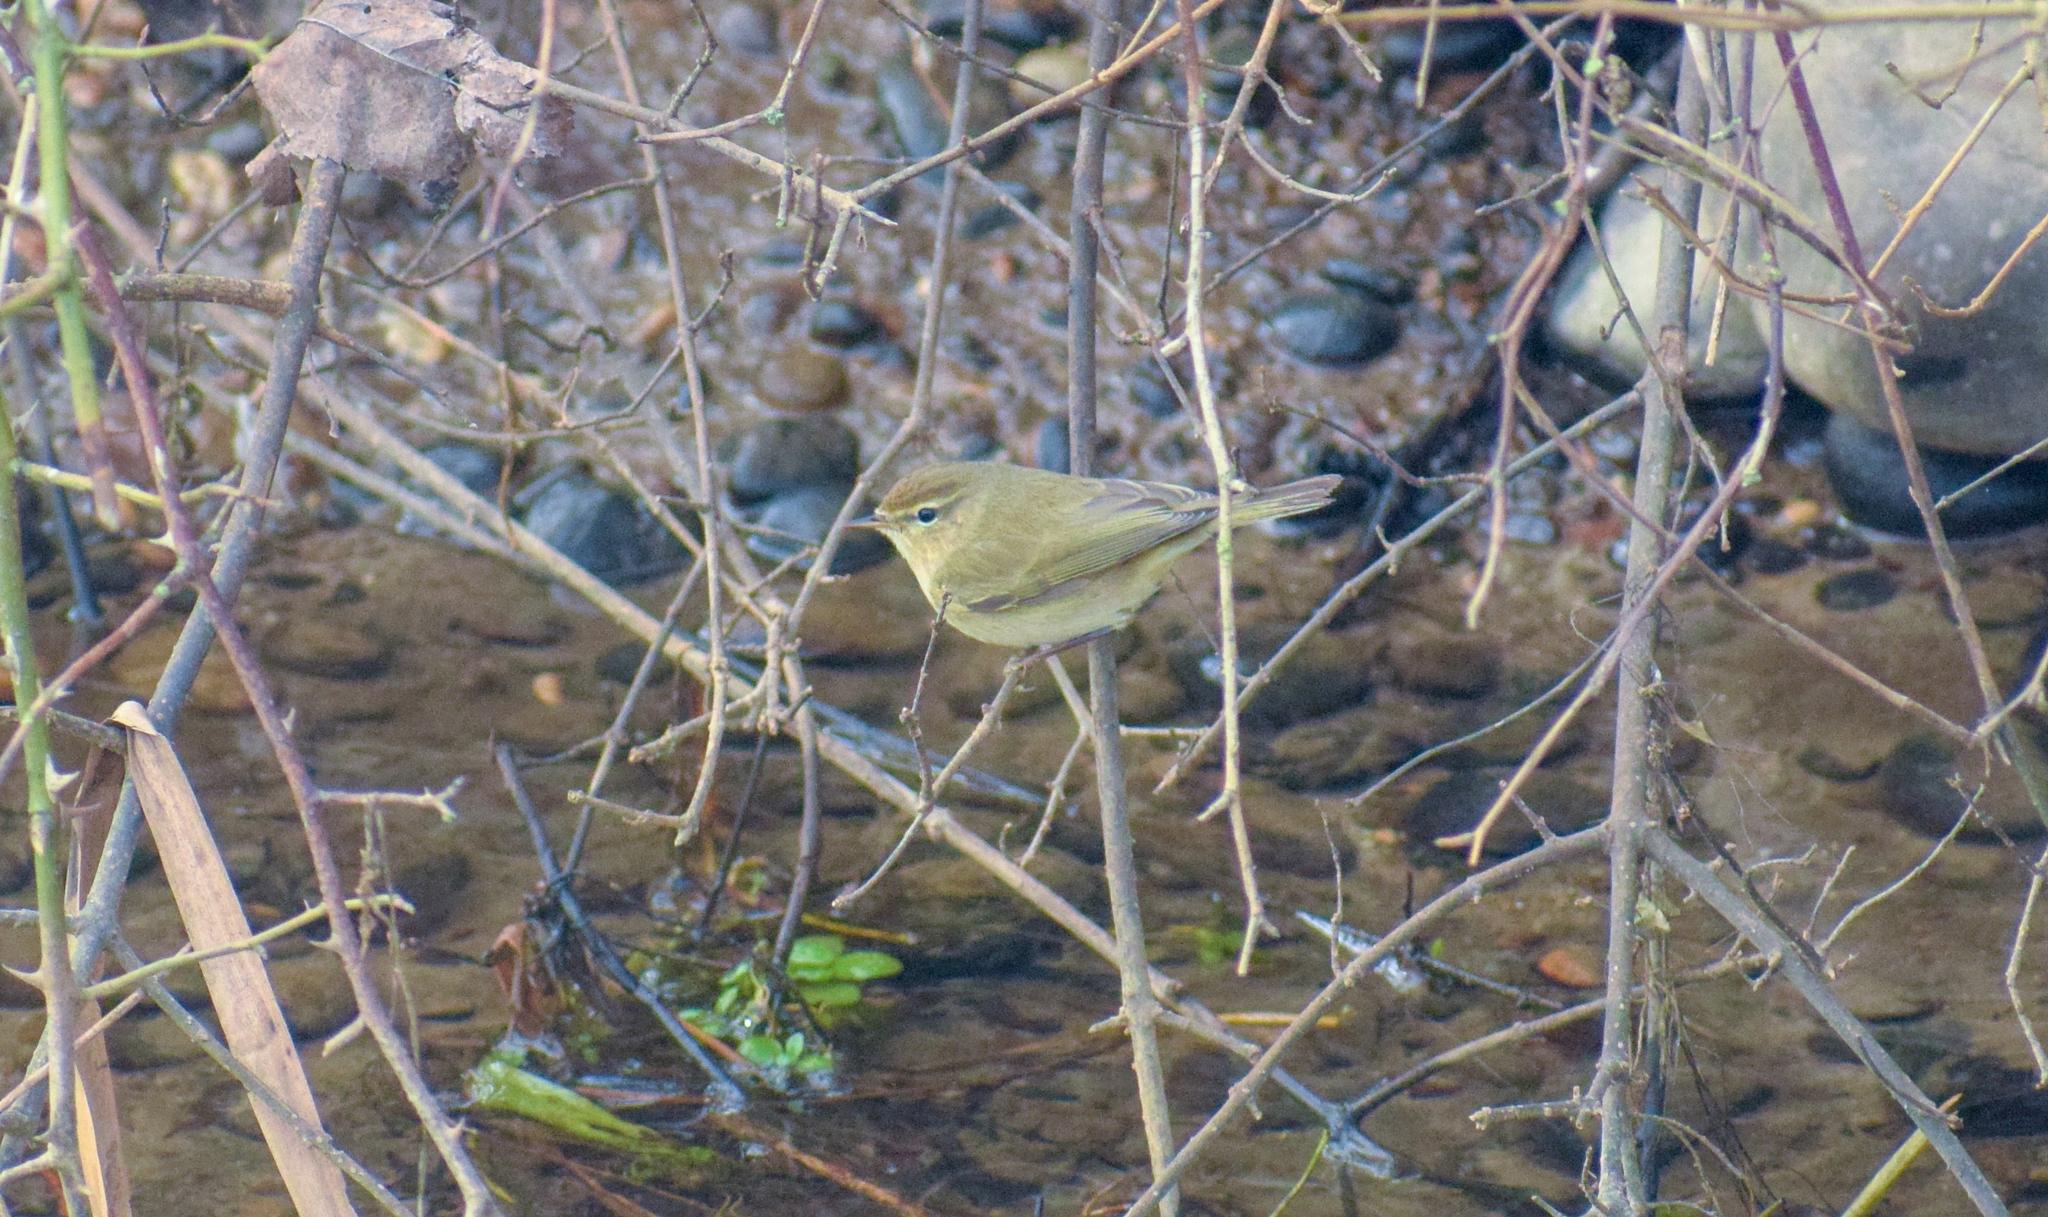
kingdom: Animalia
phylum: Chordata
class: Aves
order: Passeriformes
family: Phylloscopidae
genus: Phylloscopus
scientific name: Phylloscopus collybita
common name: Common chiffchaff
